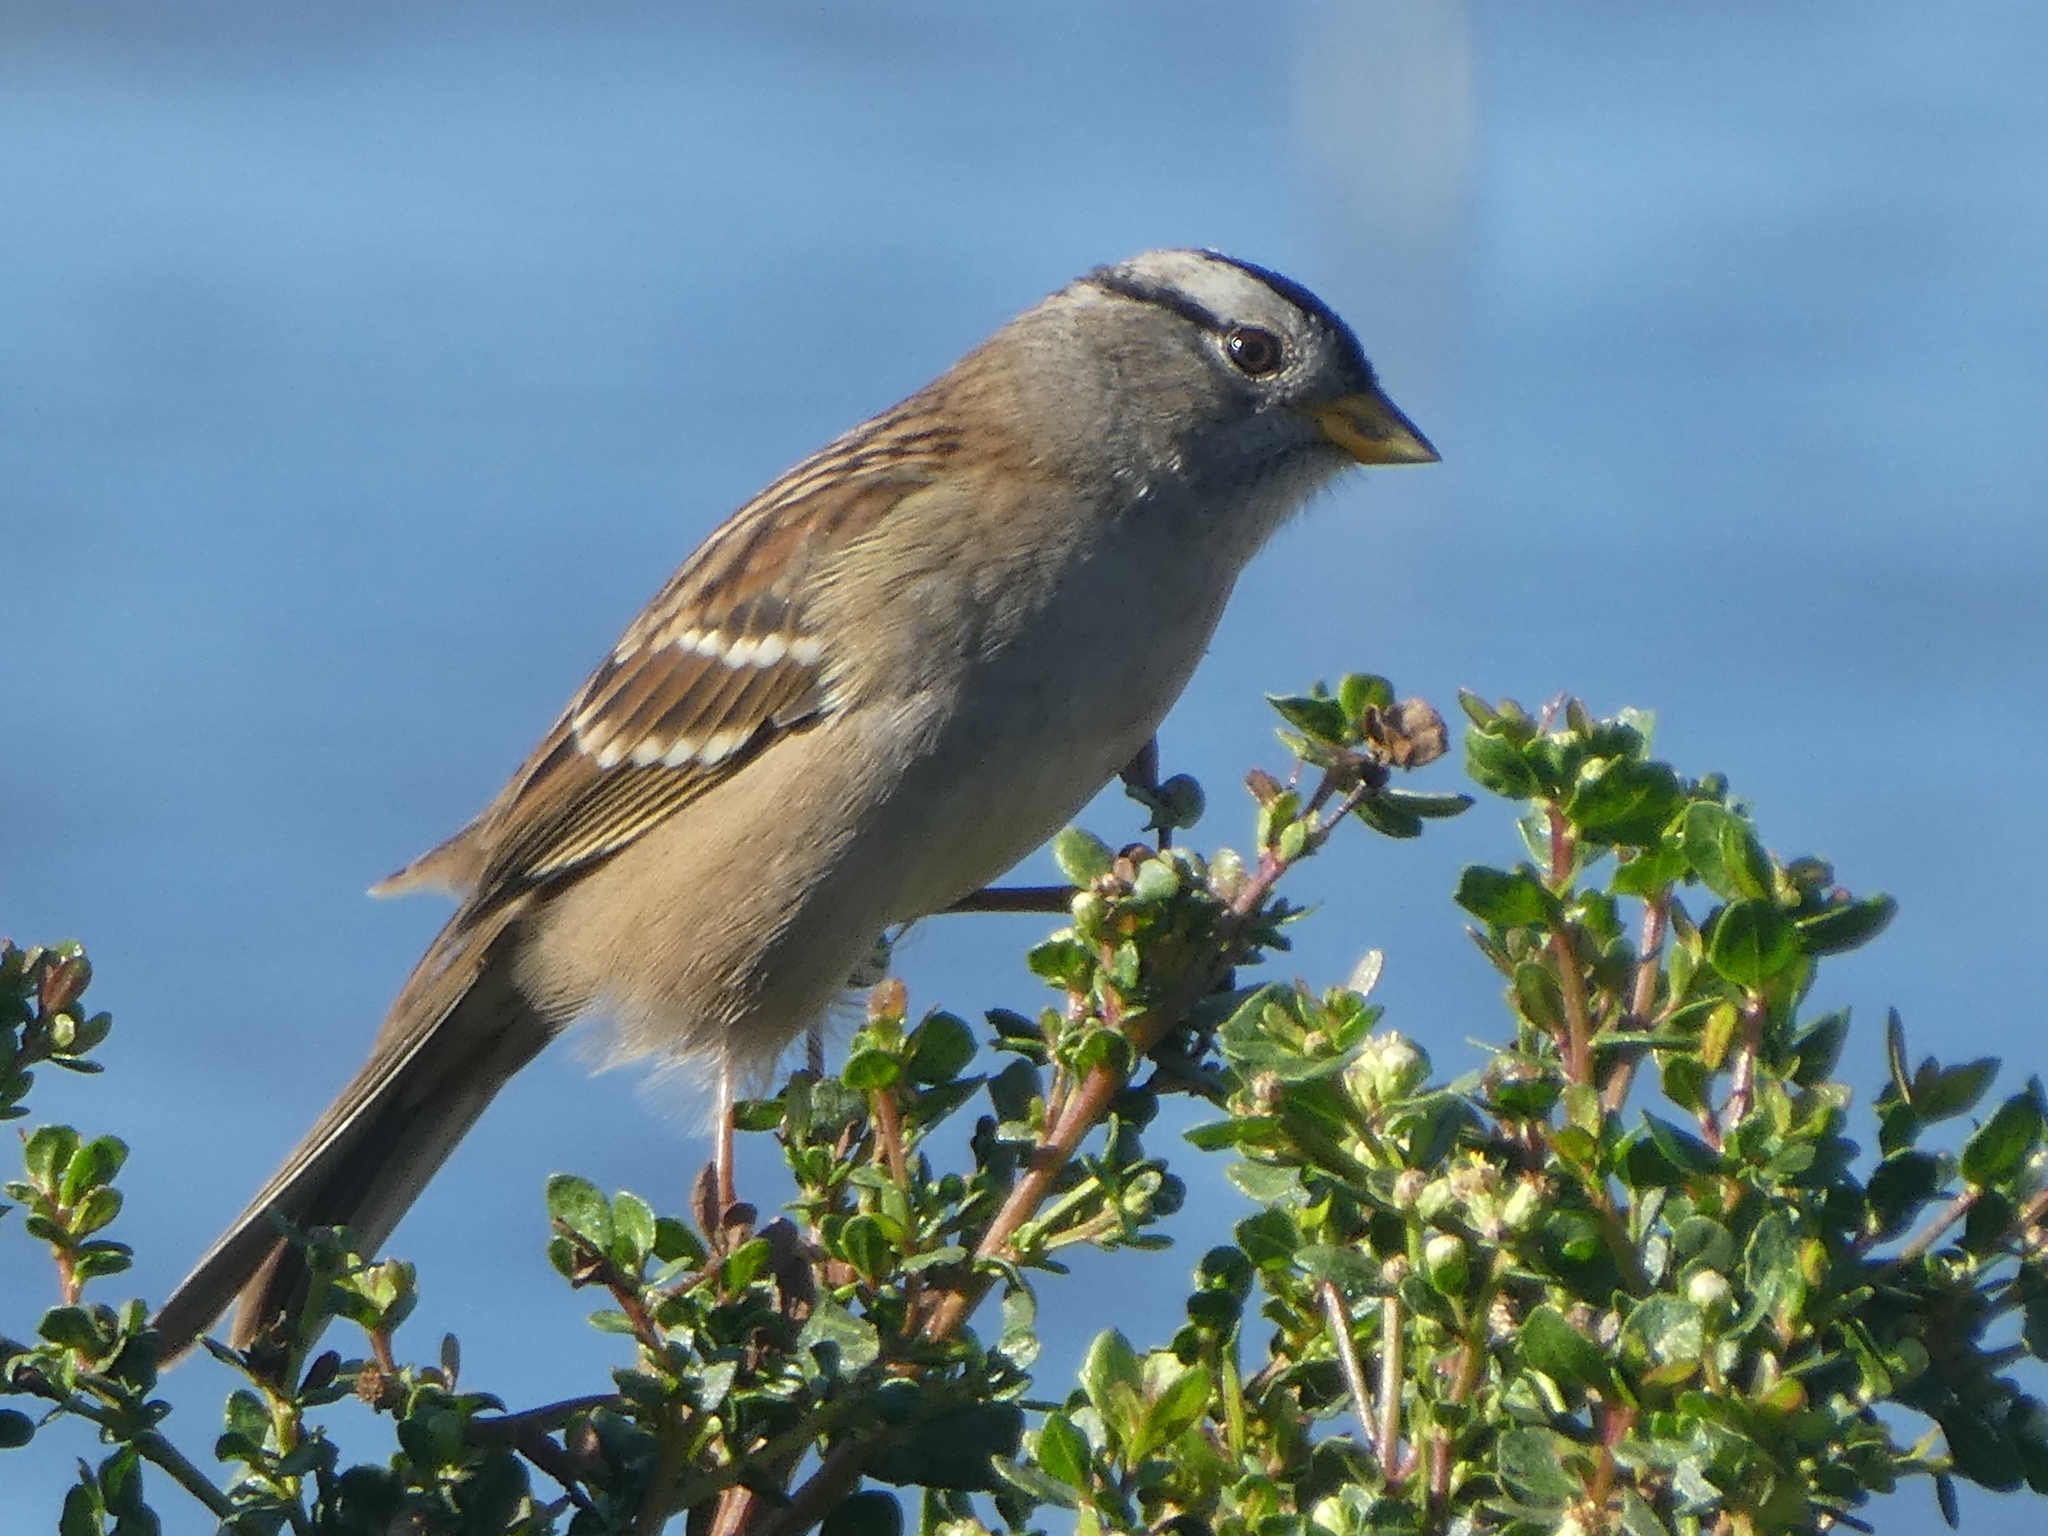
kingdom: Animalia
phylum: Chordata
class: Aves
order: Passeriformes
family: Passerellidae
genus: Zonotrichia
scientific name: Zonotrichia leucophrys
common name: White-crowned sparrow
